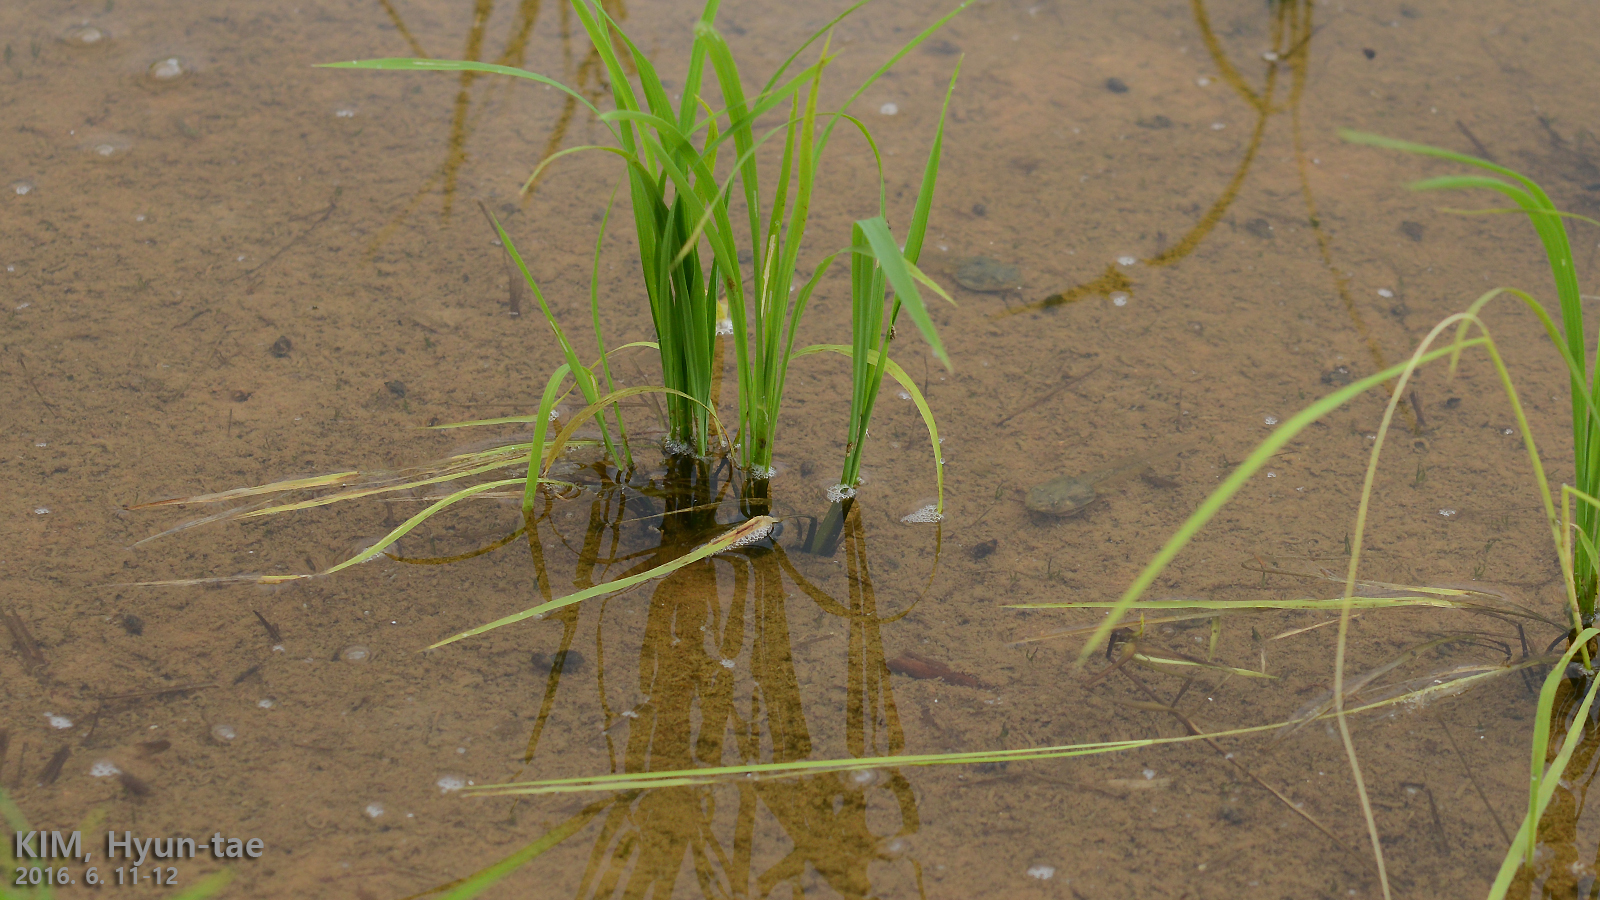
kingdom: Animalia
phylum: Chordata
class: Amphibia
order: Anura
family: Hylidae
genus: Dryophytes
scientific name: Dryophytes japonicus
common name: Japanese treefrog
